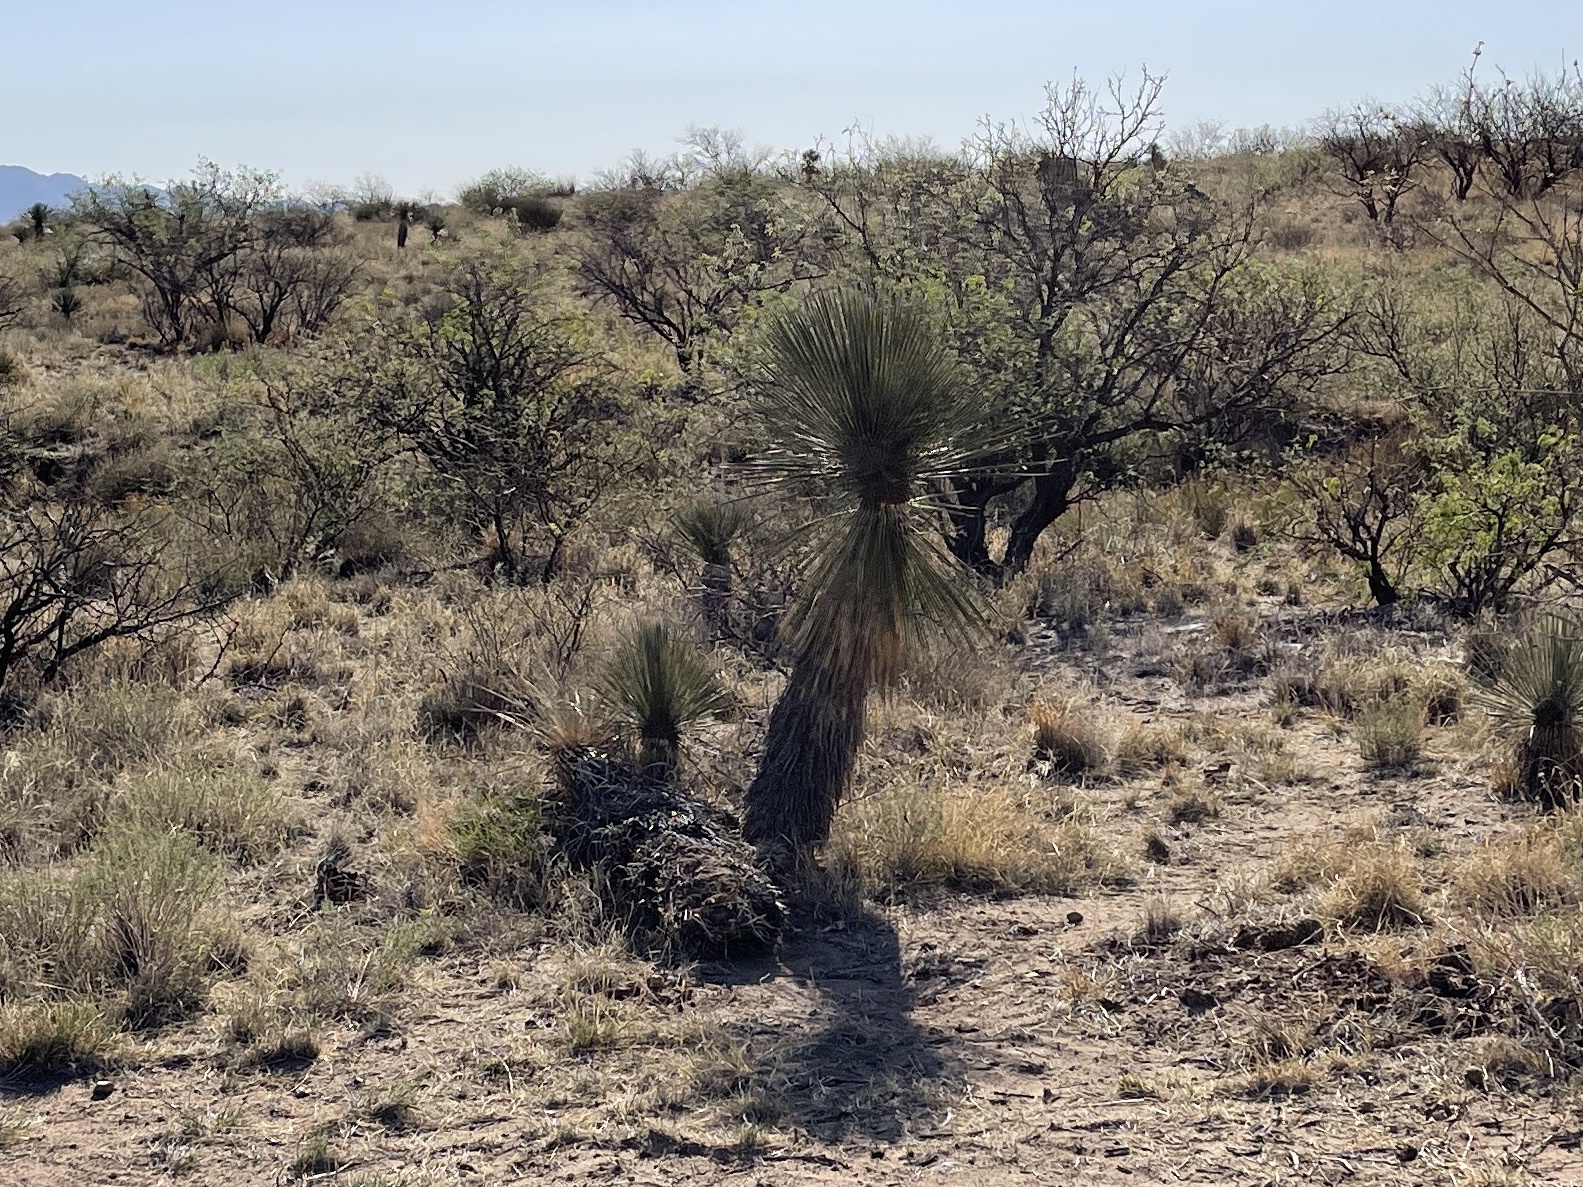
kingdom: Plantae
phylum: Tracheophyta
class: Liliopsida
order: Asparagales
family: Asparagaceae
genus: Yucca
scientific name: Yucca elata
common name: Palmella
